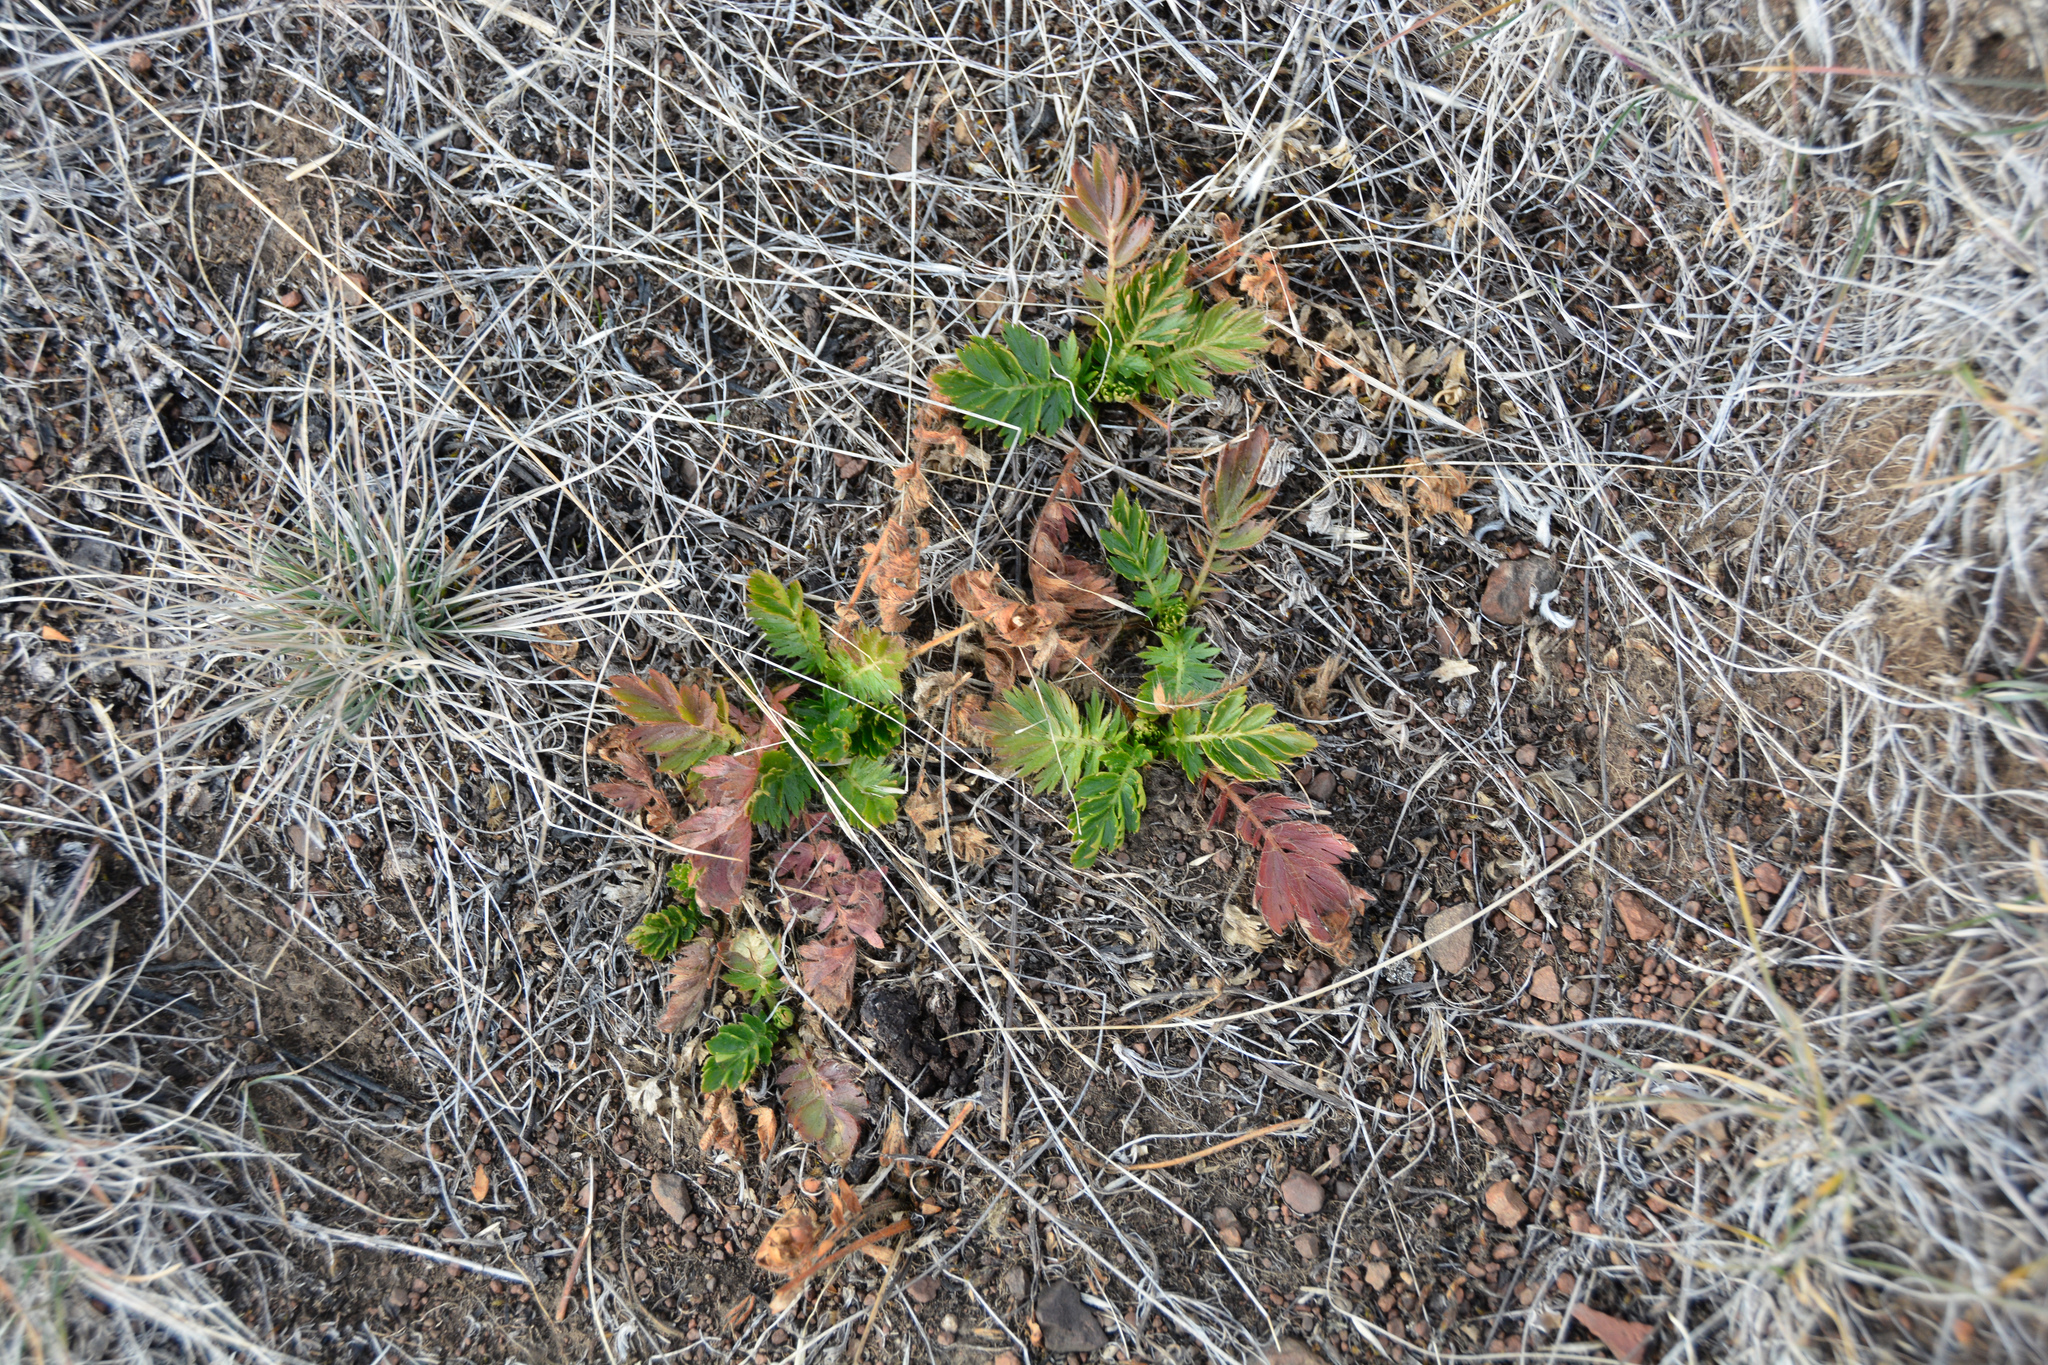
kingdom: Plantae
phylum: Tracheophyta
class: Magnoliopsida
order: Rosales
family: Rosaceae
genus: Geum
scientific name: Geum triflorum
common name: Old man's whiskers
